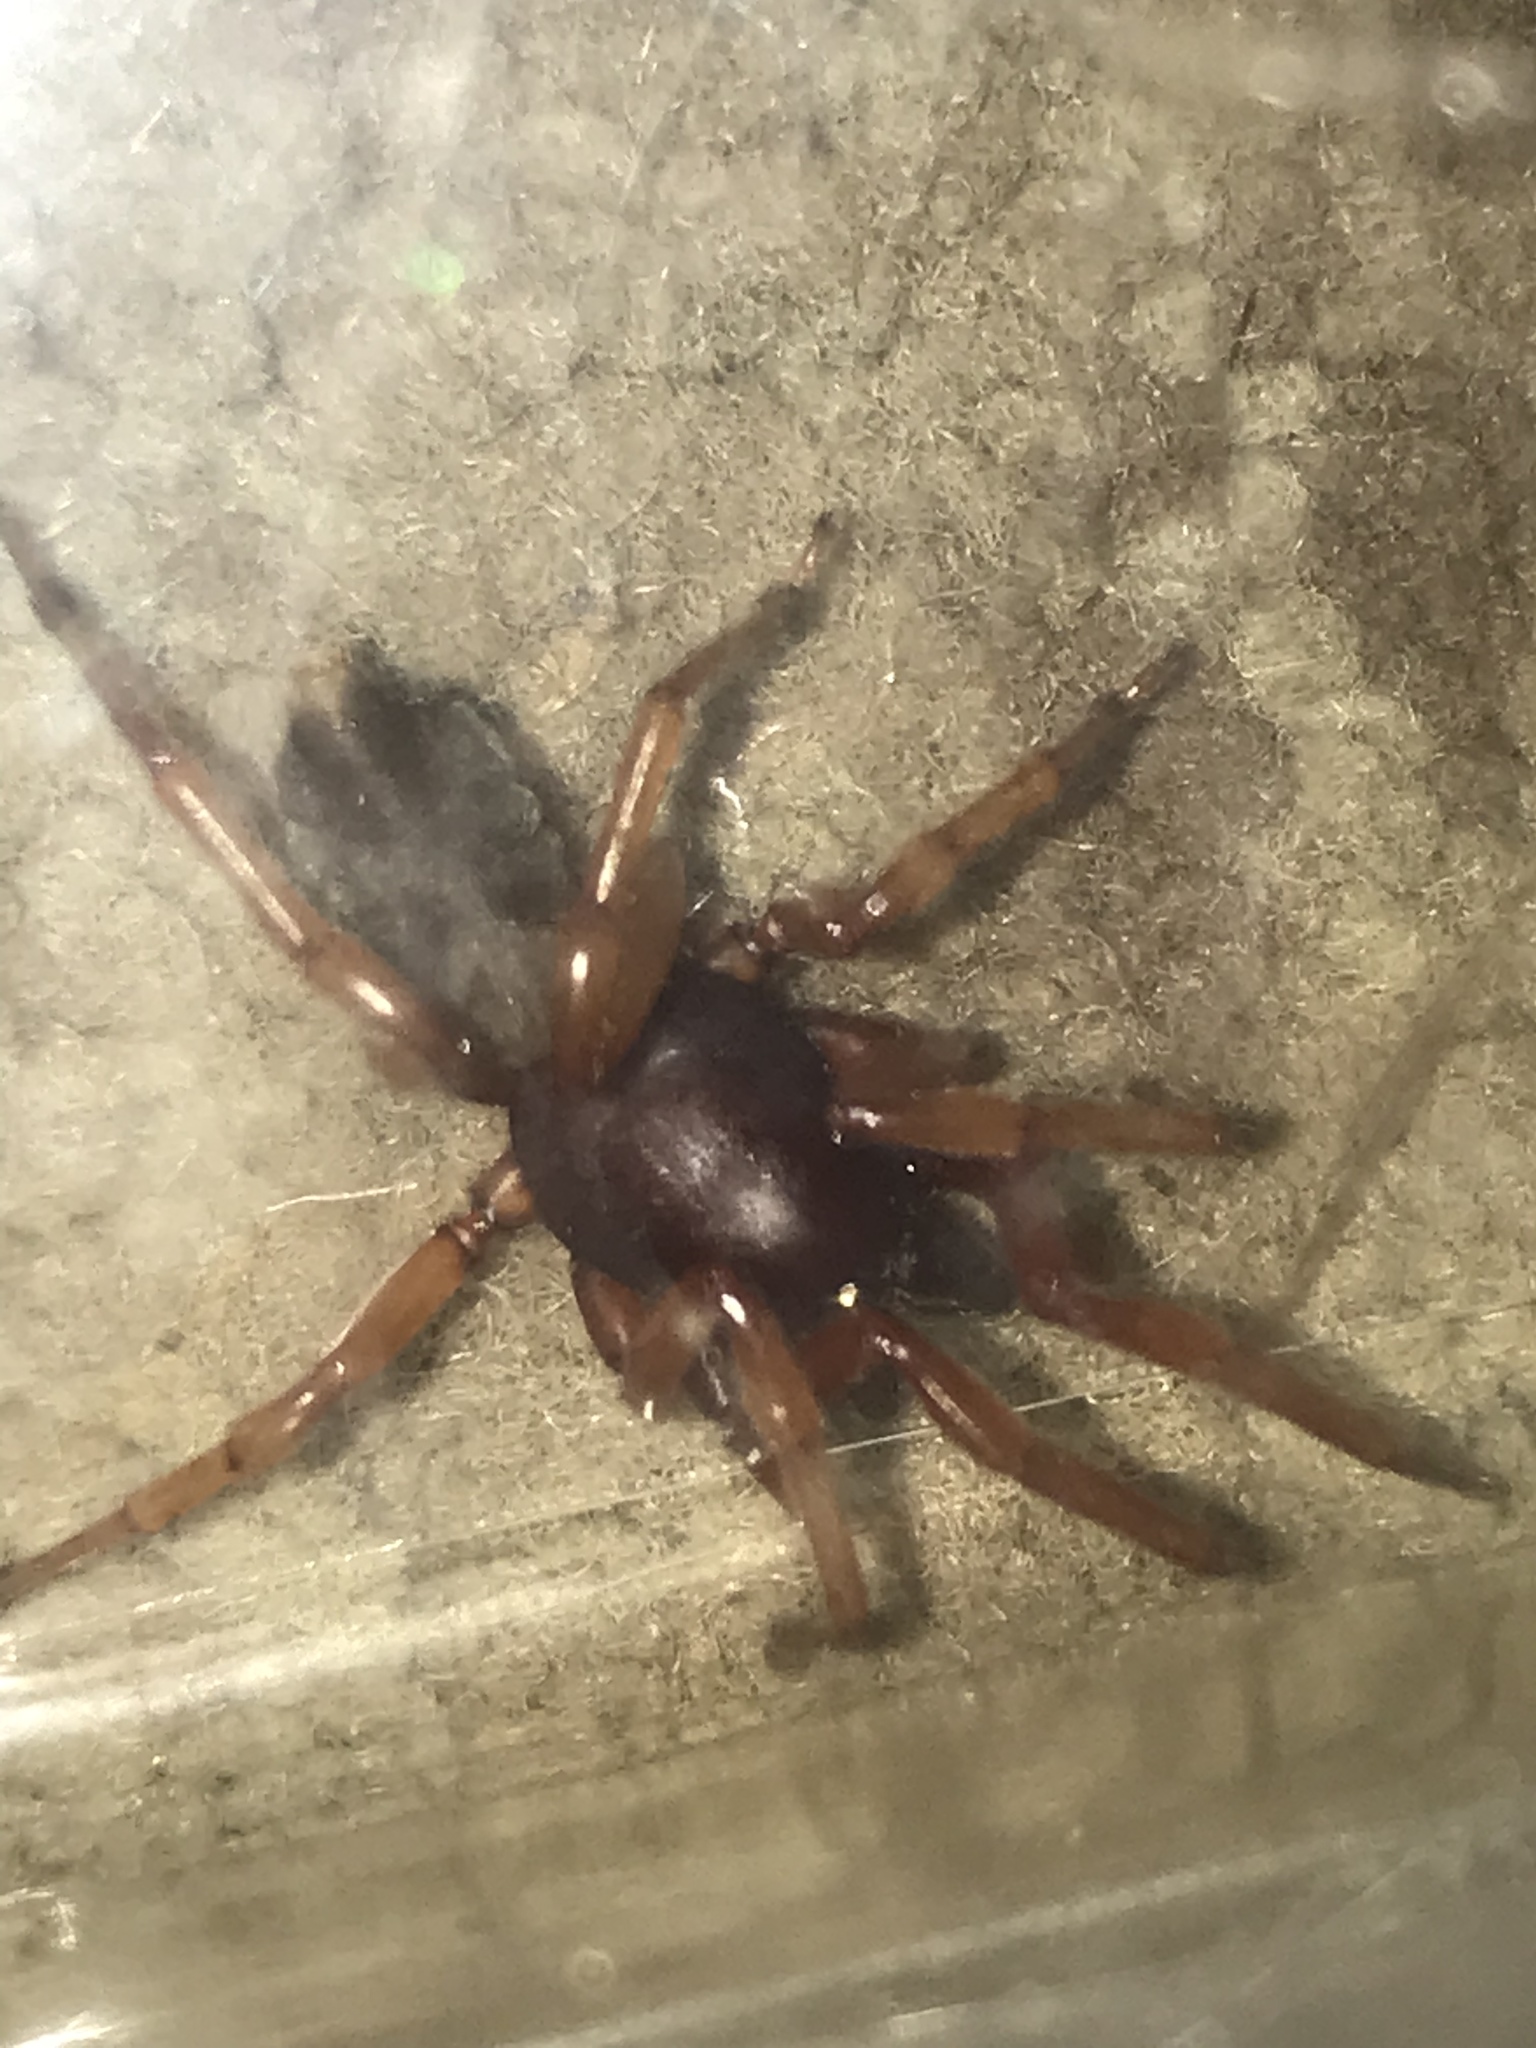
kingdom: Animalia
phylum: Arthropoda
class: Arachnida
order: Araneae
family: Dysderidae
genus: Dysdera
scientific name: Dysdera crocata
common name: Woodlouse spider
